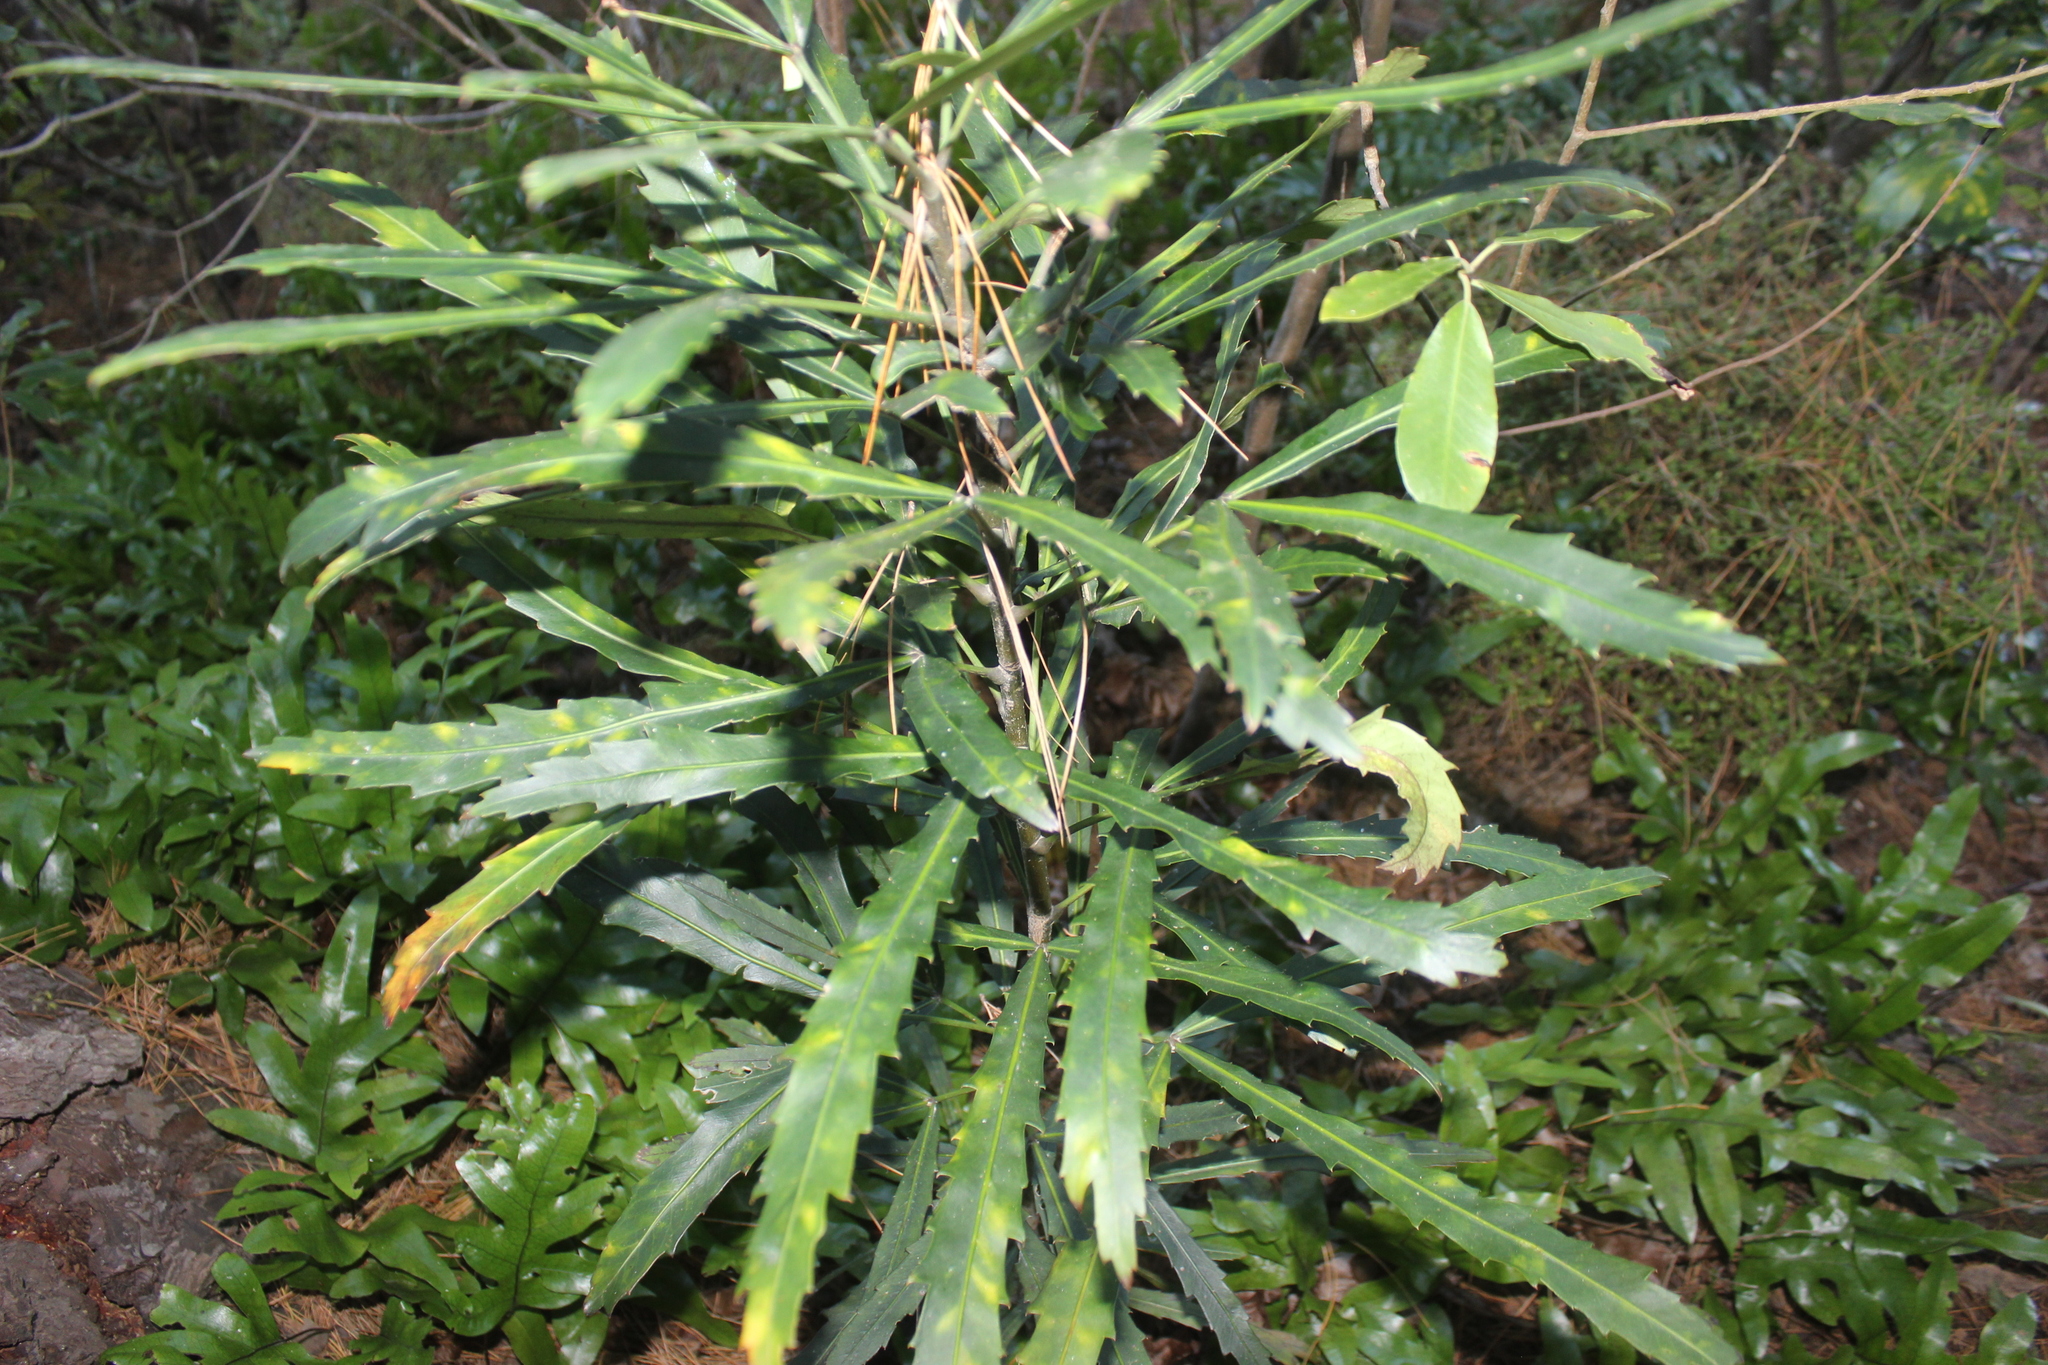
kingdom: Plantae
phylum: Tracheophyta
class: Magnoliopsida
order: Apiales
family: Araliaceae
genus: Pseudopanax
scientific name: Pseudopanax
